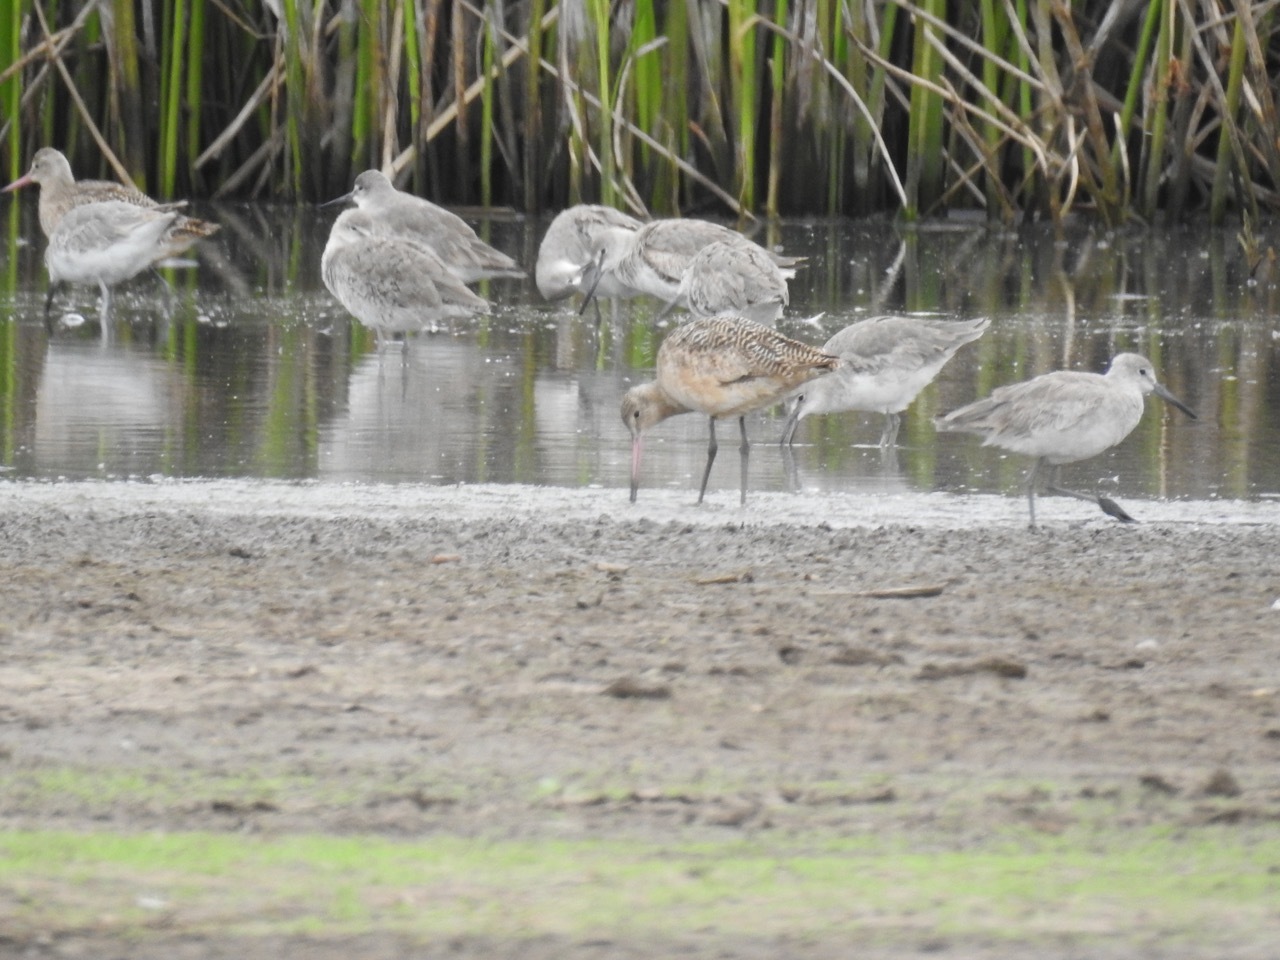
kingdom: Animalia
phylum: Chordata
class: Aves
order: Charadriiformes
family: Scolopacidae
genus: Limosa
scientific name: Limosa fedoa
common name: Marbled godwit
